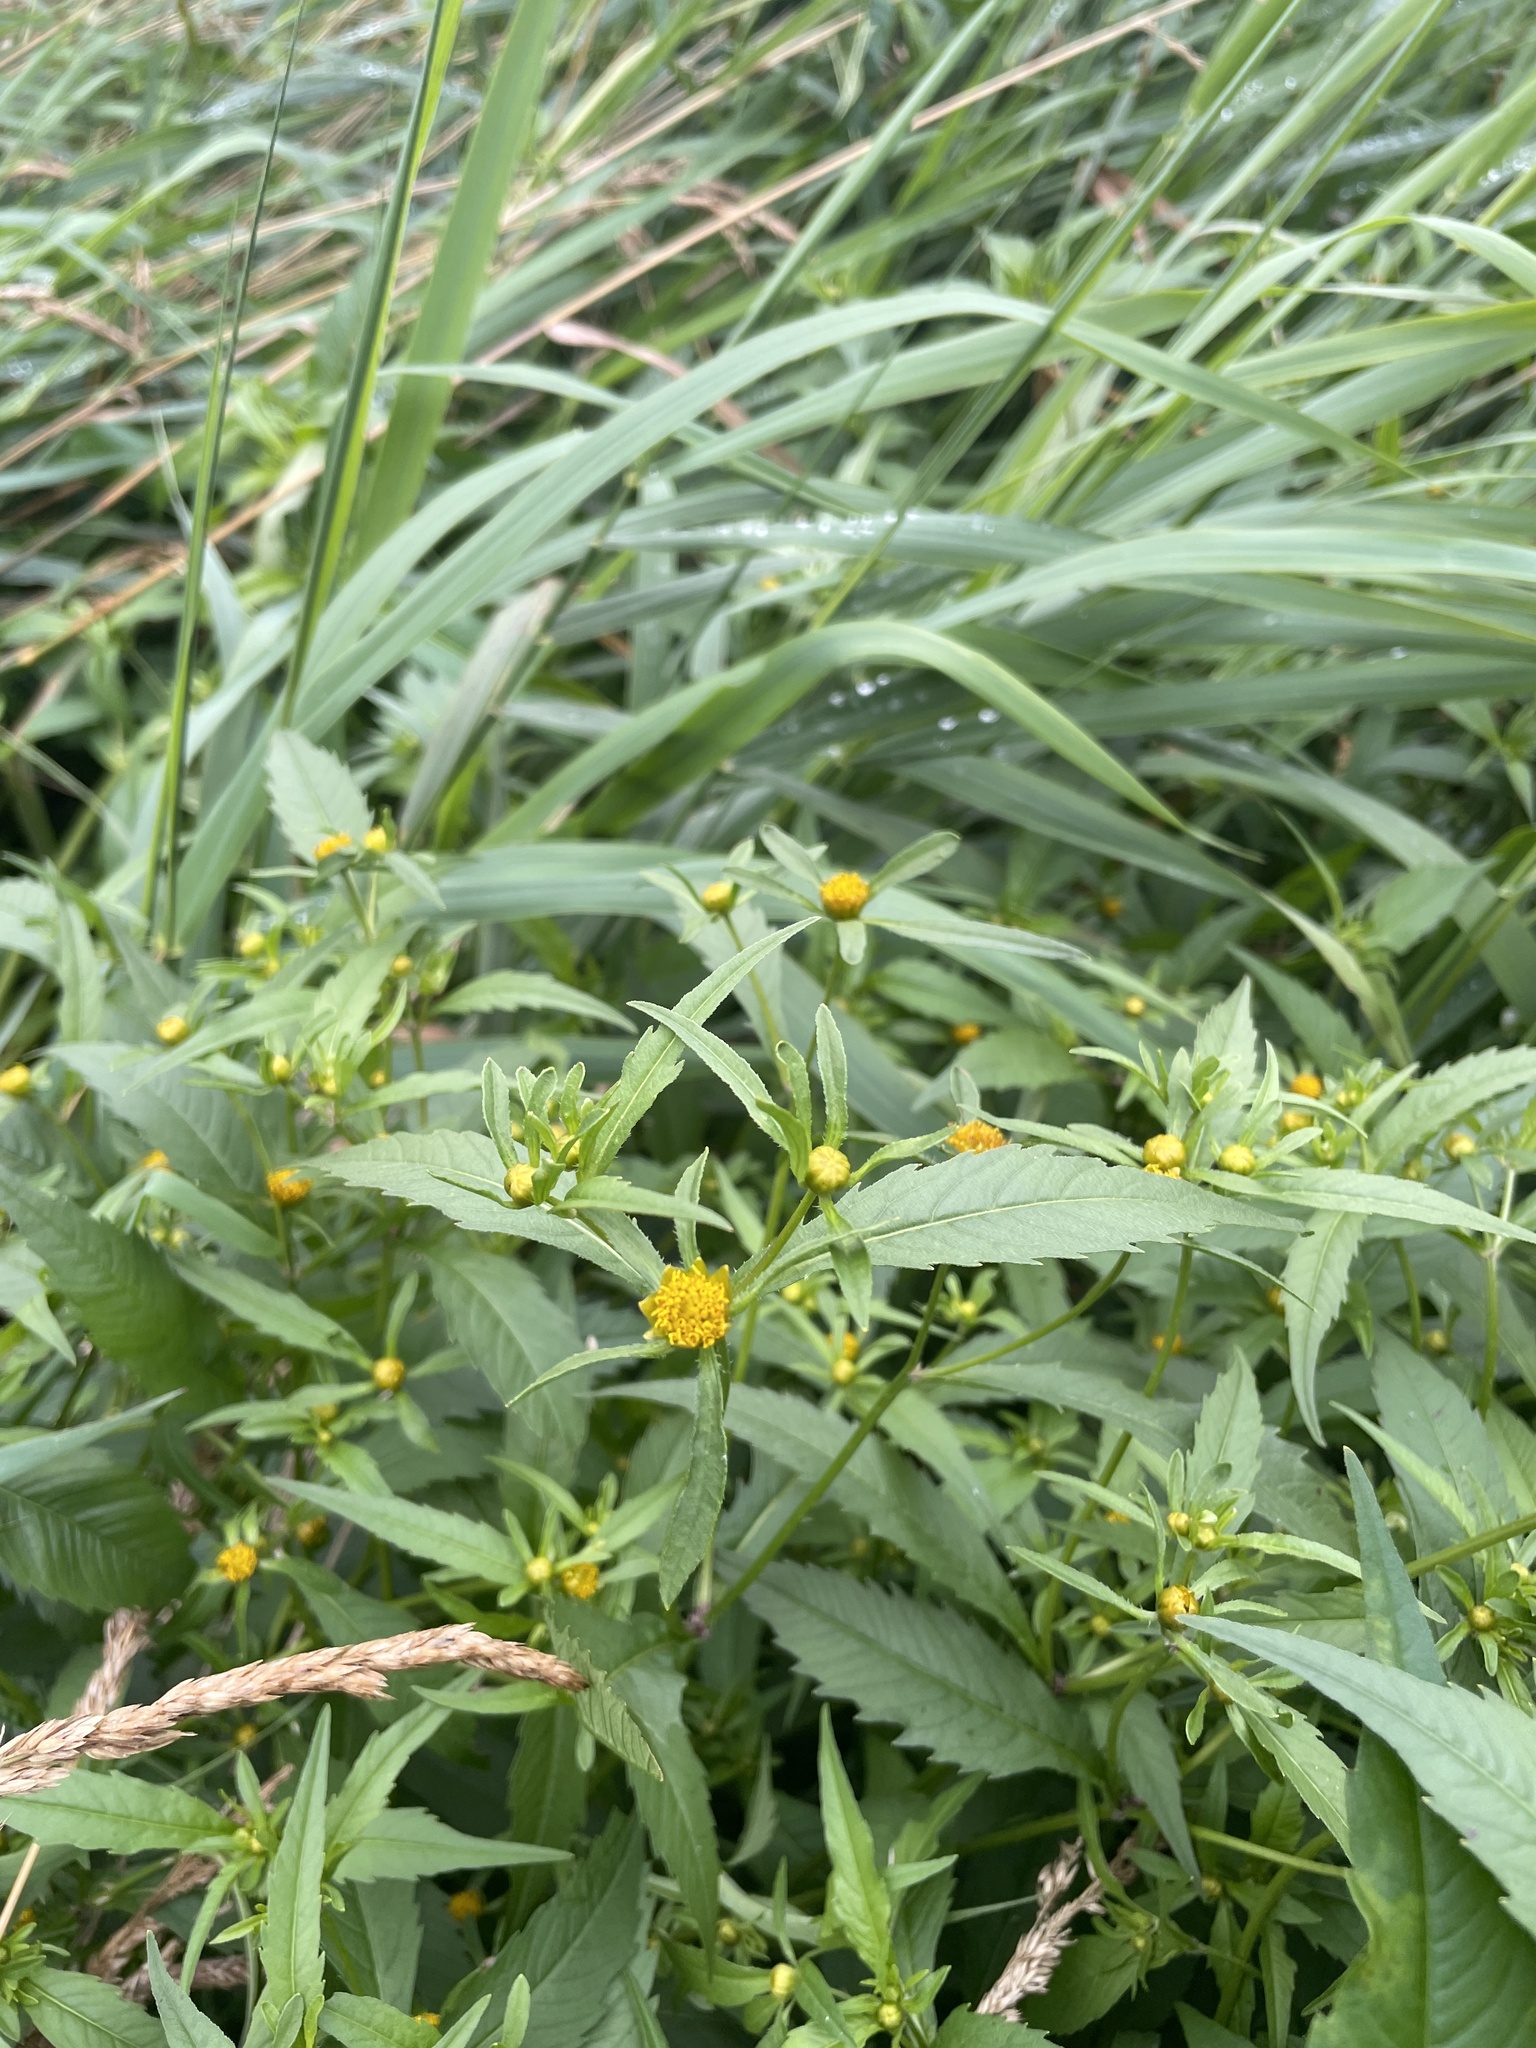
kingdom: Plantae
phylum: Tracheophyta
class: Magnoliopsida
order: Asterales
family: Asteraceae
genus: Bidens
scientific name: Bidens cernua
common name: Nodding bur-marigold
